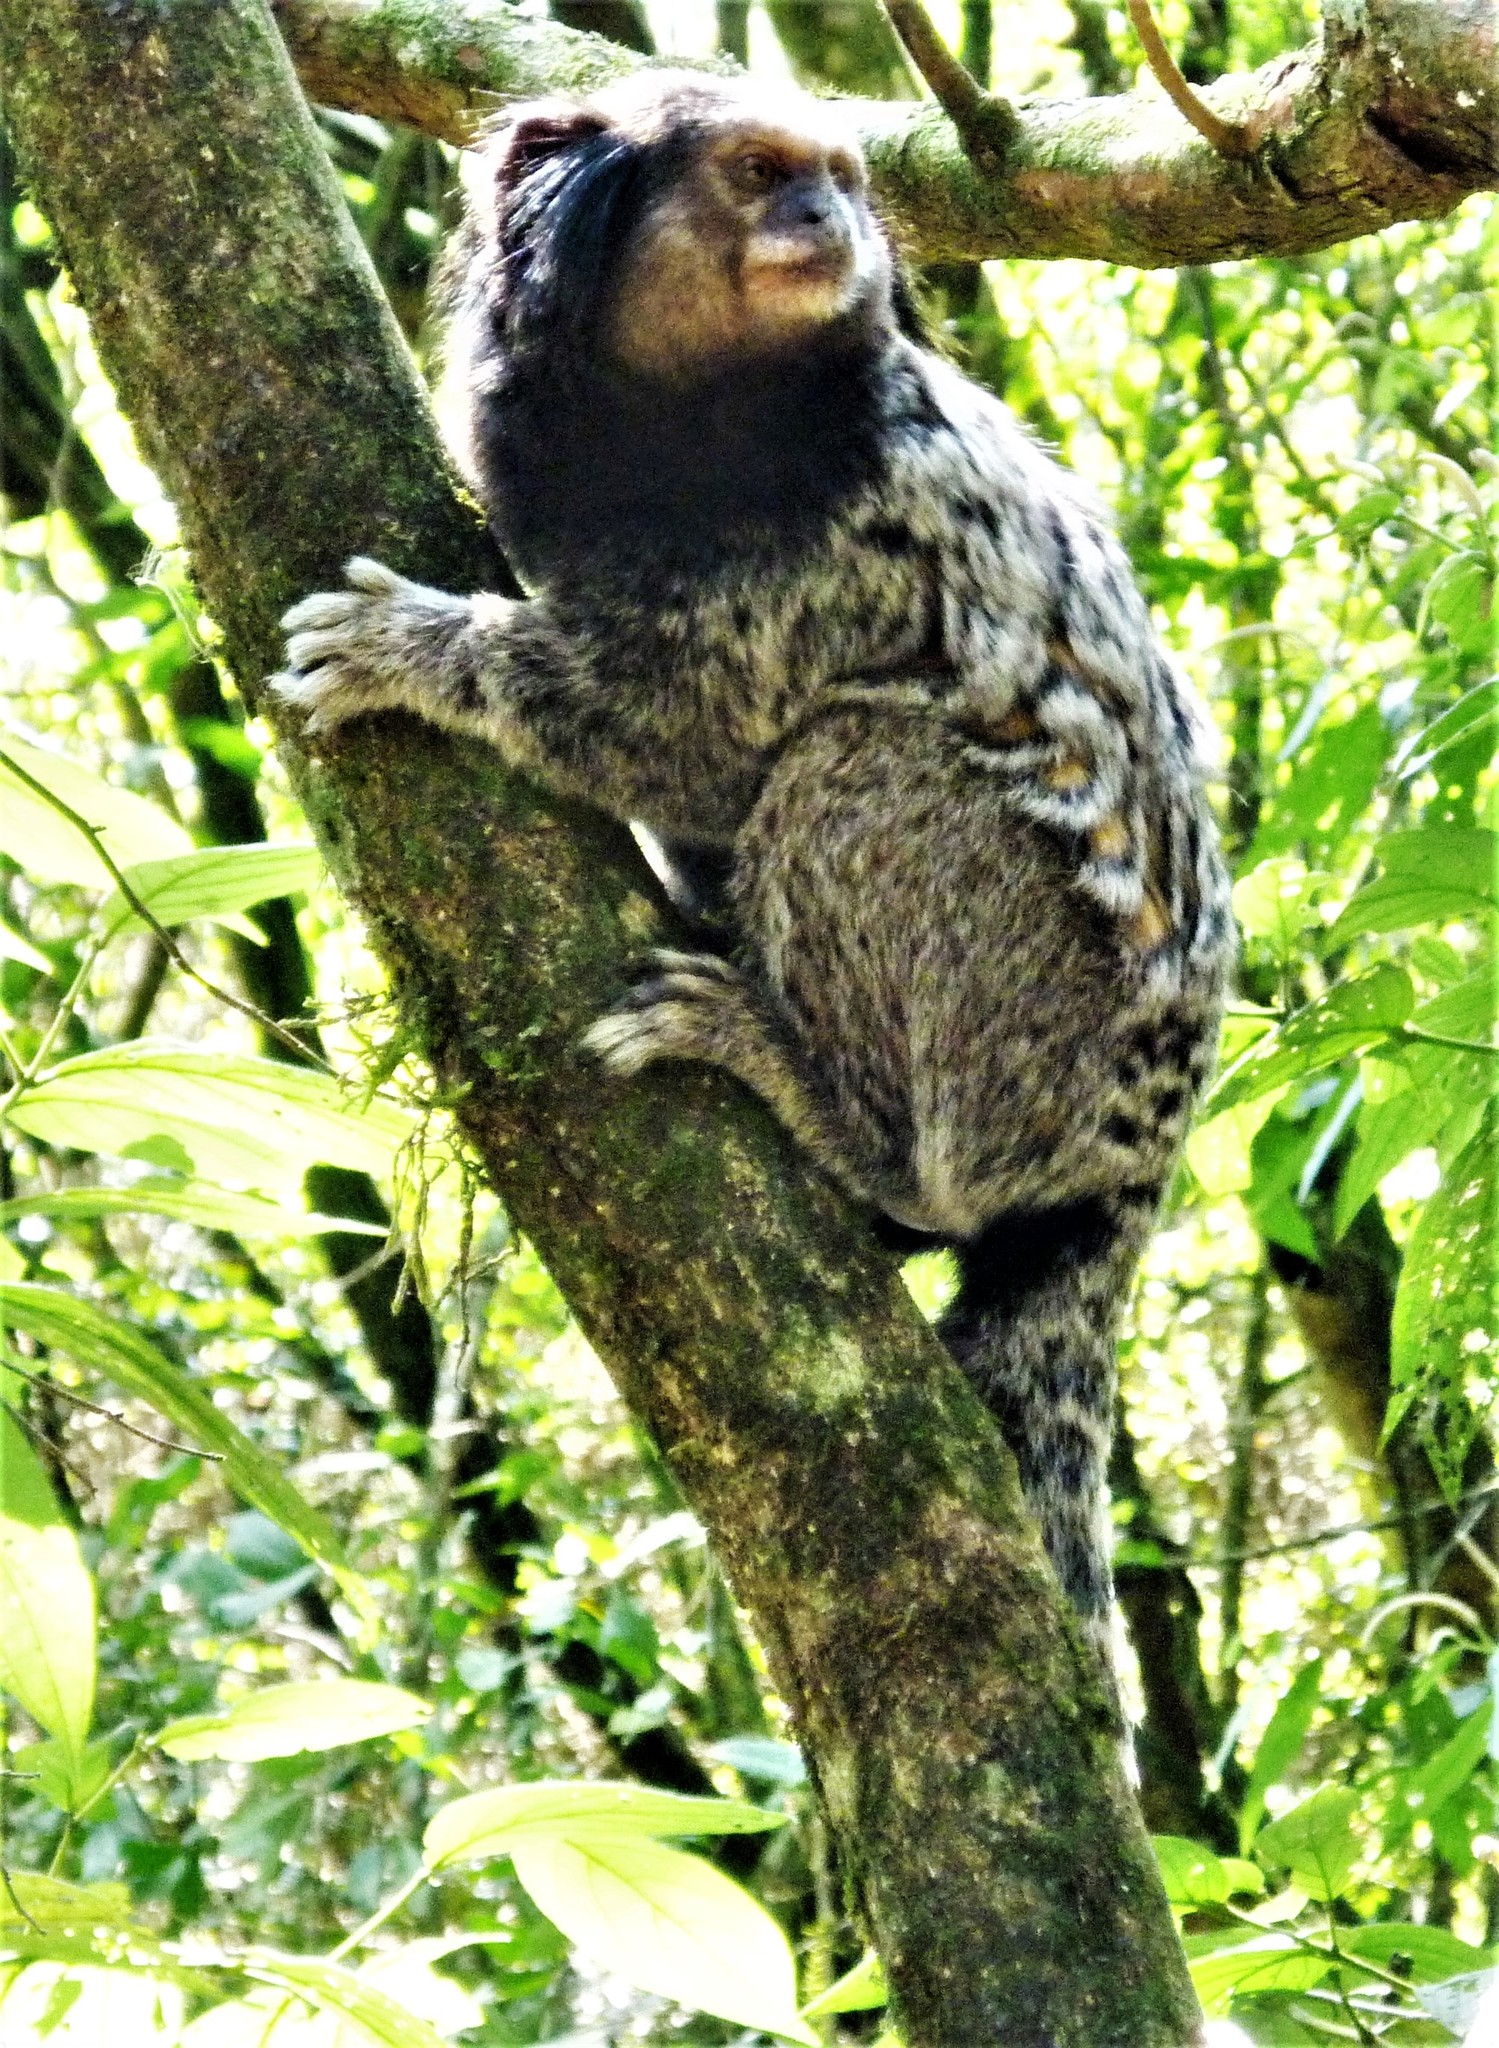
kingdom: Animalia
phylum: Chordata
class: Mammalia
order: Primates
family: Callitrichidae
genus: Callithrix
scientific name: Callithrix penicillata
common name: Black-tufted marmoset
